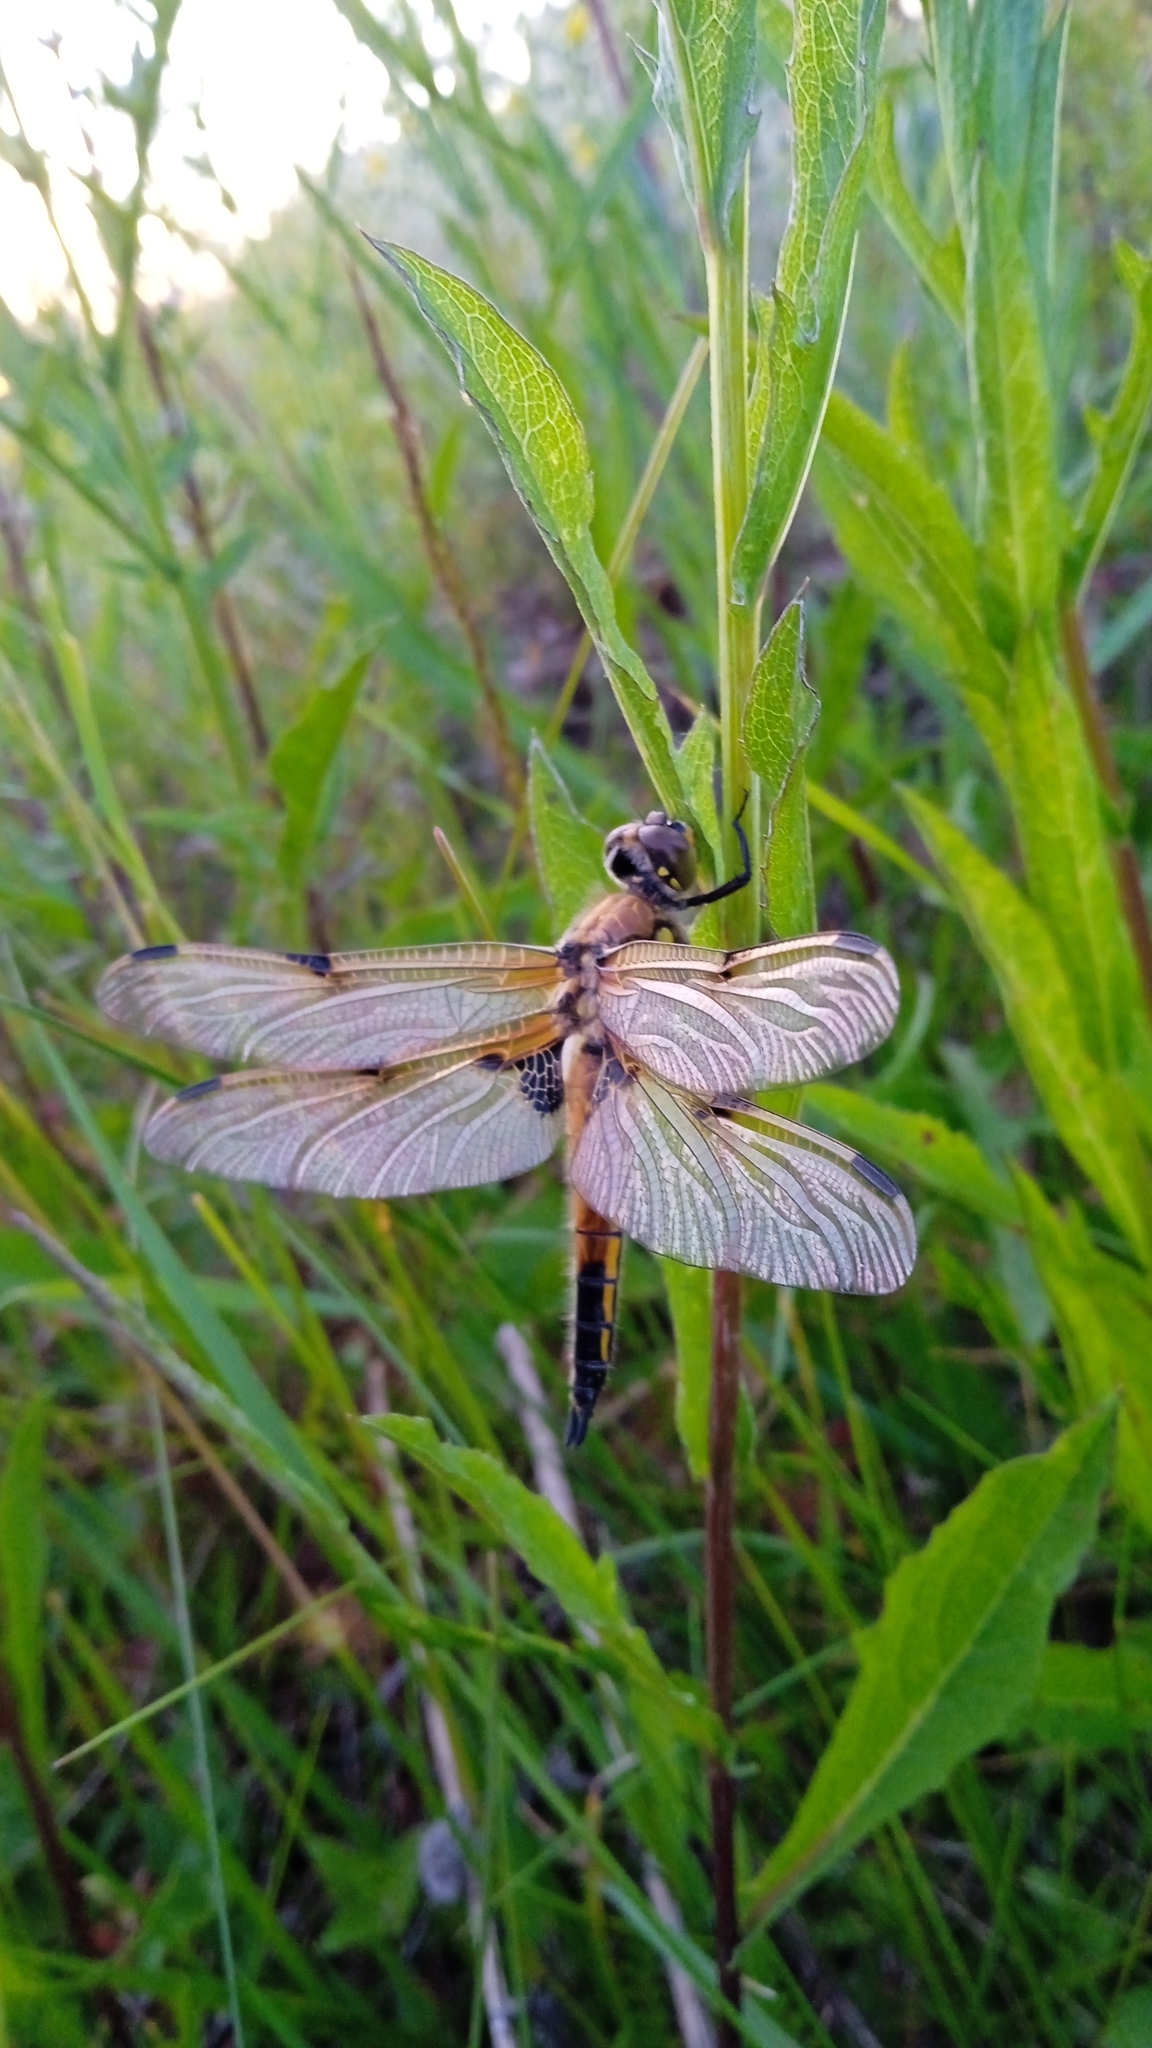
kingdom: Animalia
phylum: Arthropoda
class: Insecta
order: Odonata
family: Libellulidae
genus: Libellula
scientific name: Libellula quadrimaculata
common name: Four-spotted chaser
